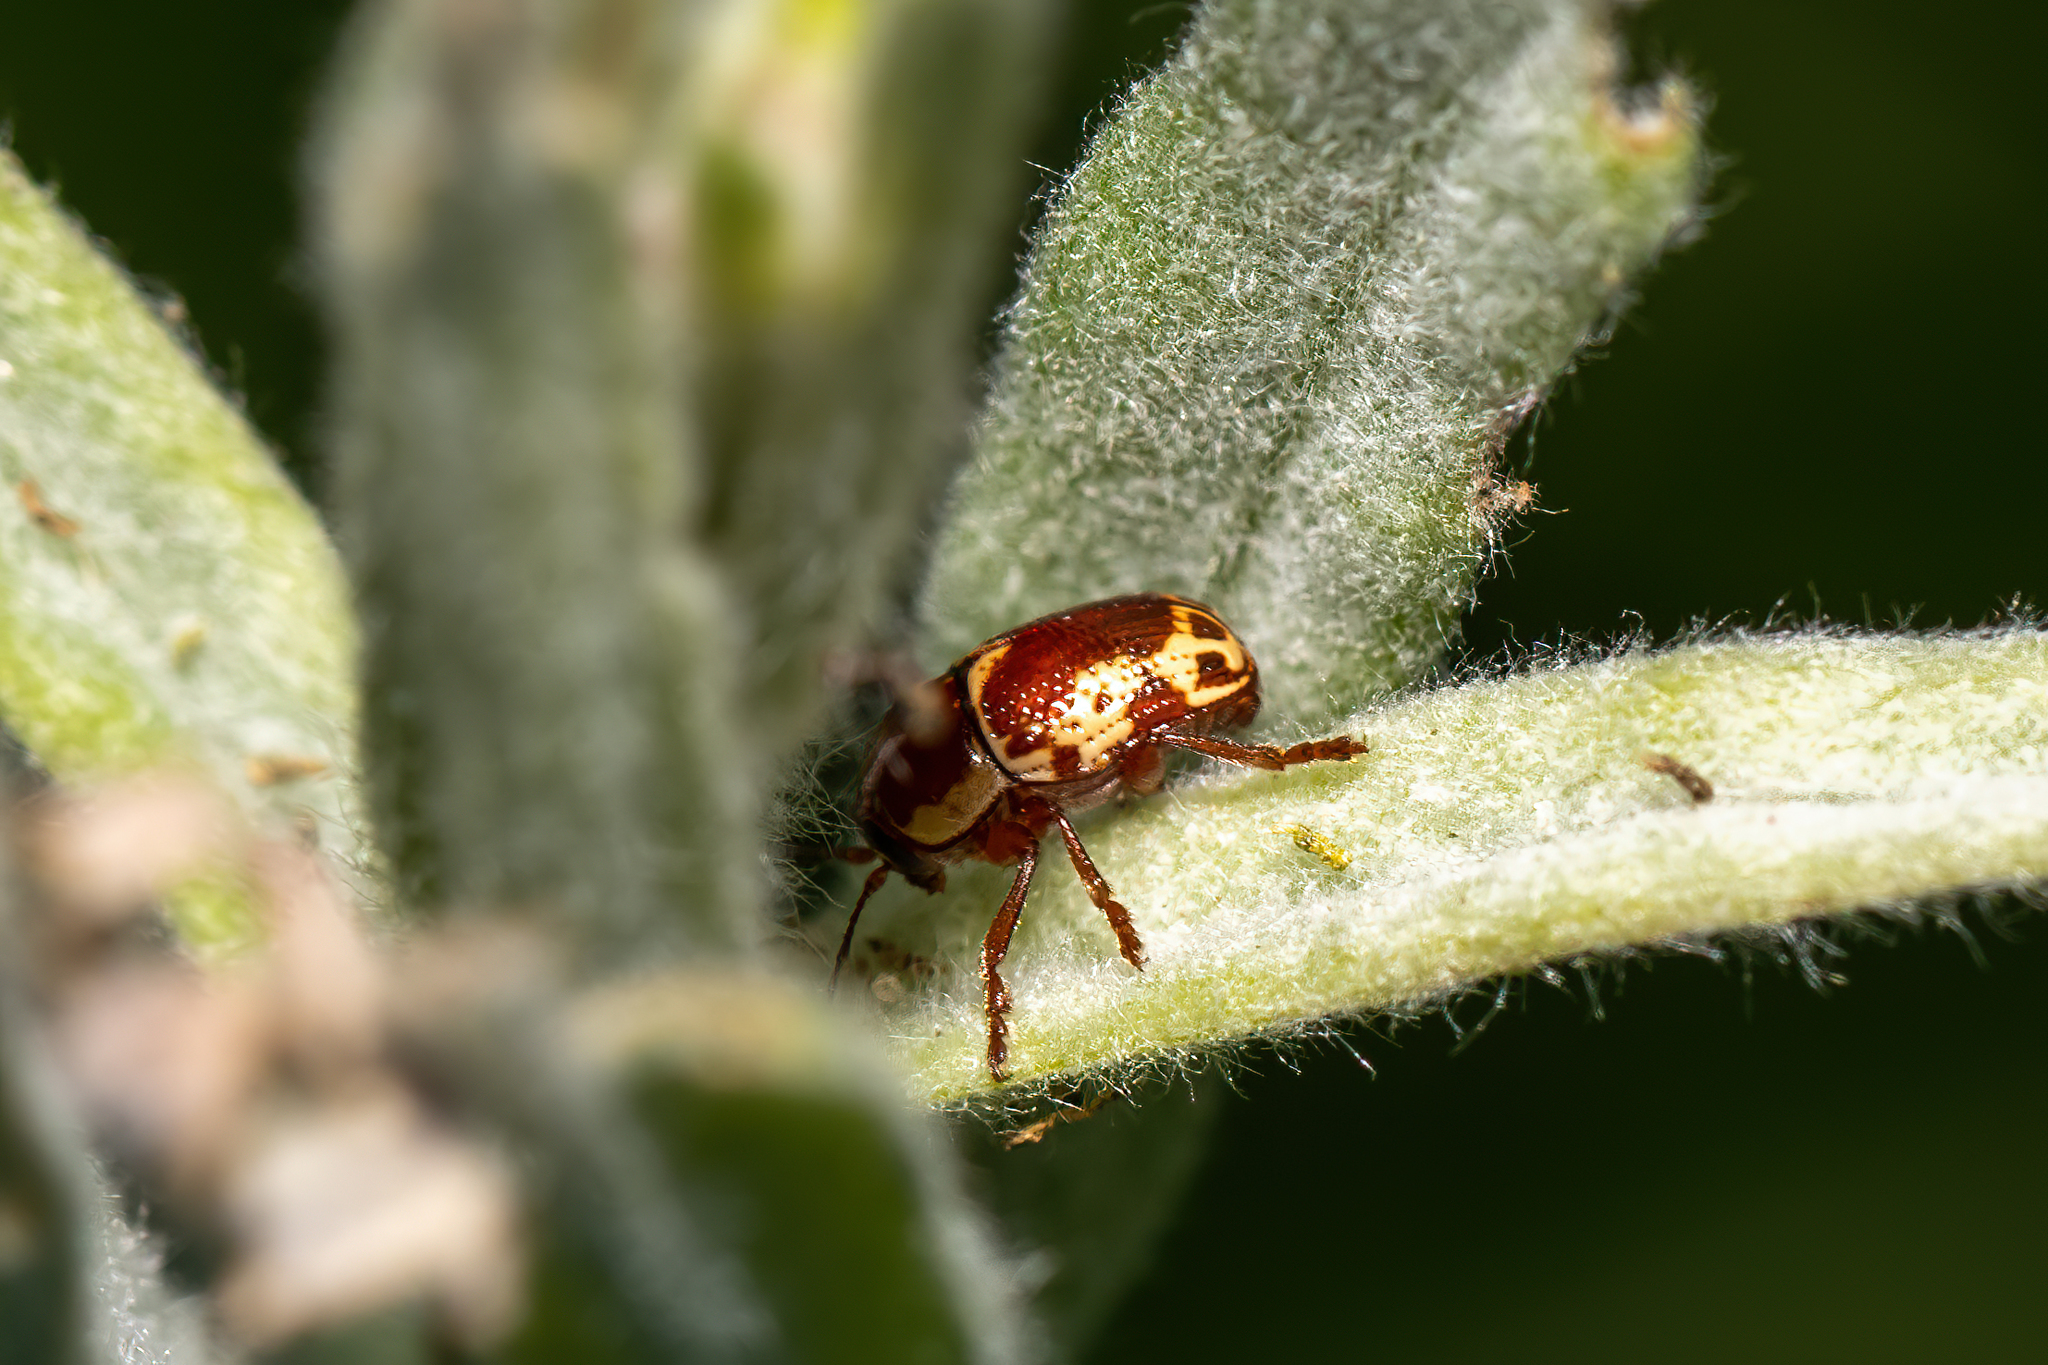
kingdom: Animalia
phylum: Arthropoda
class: Insecta
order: Coleoptera
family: Chrysomelidae
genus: Cryptocephalus
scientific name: Cryptocephalus castaneus
